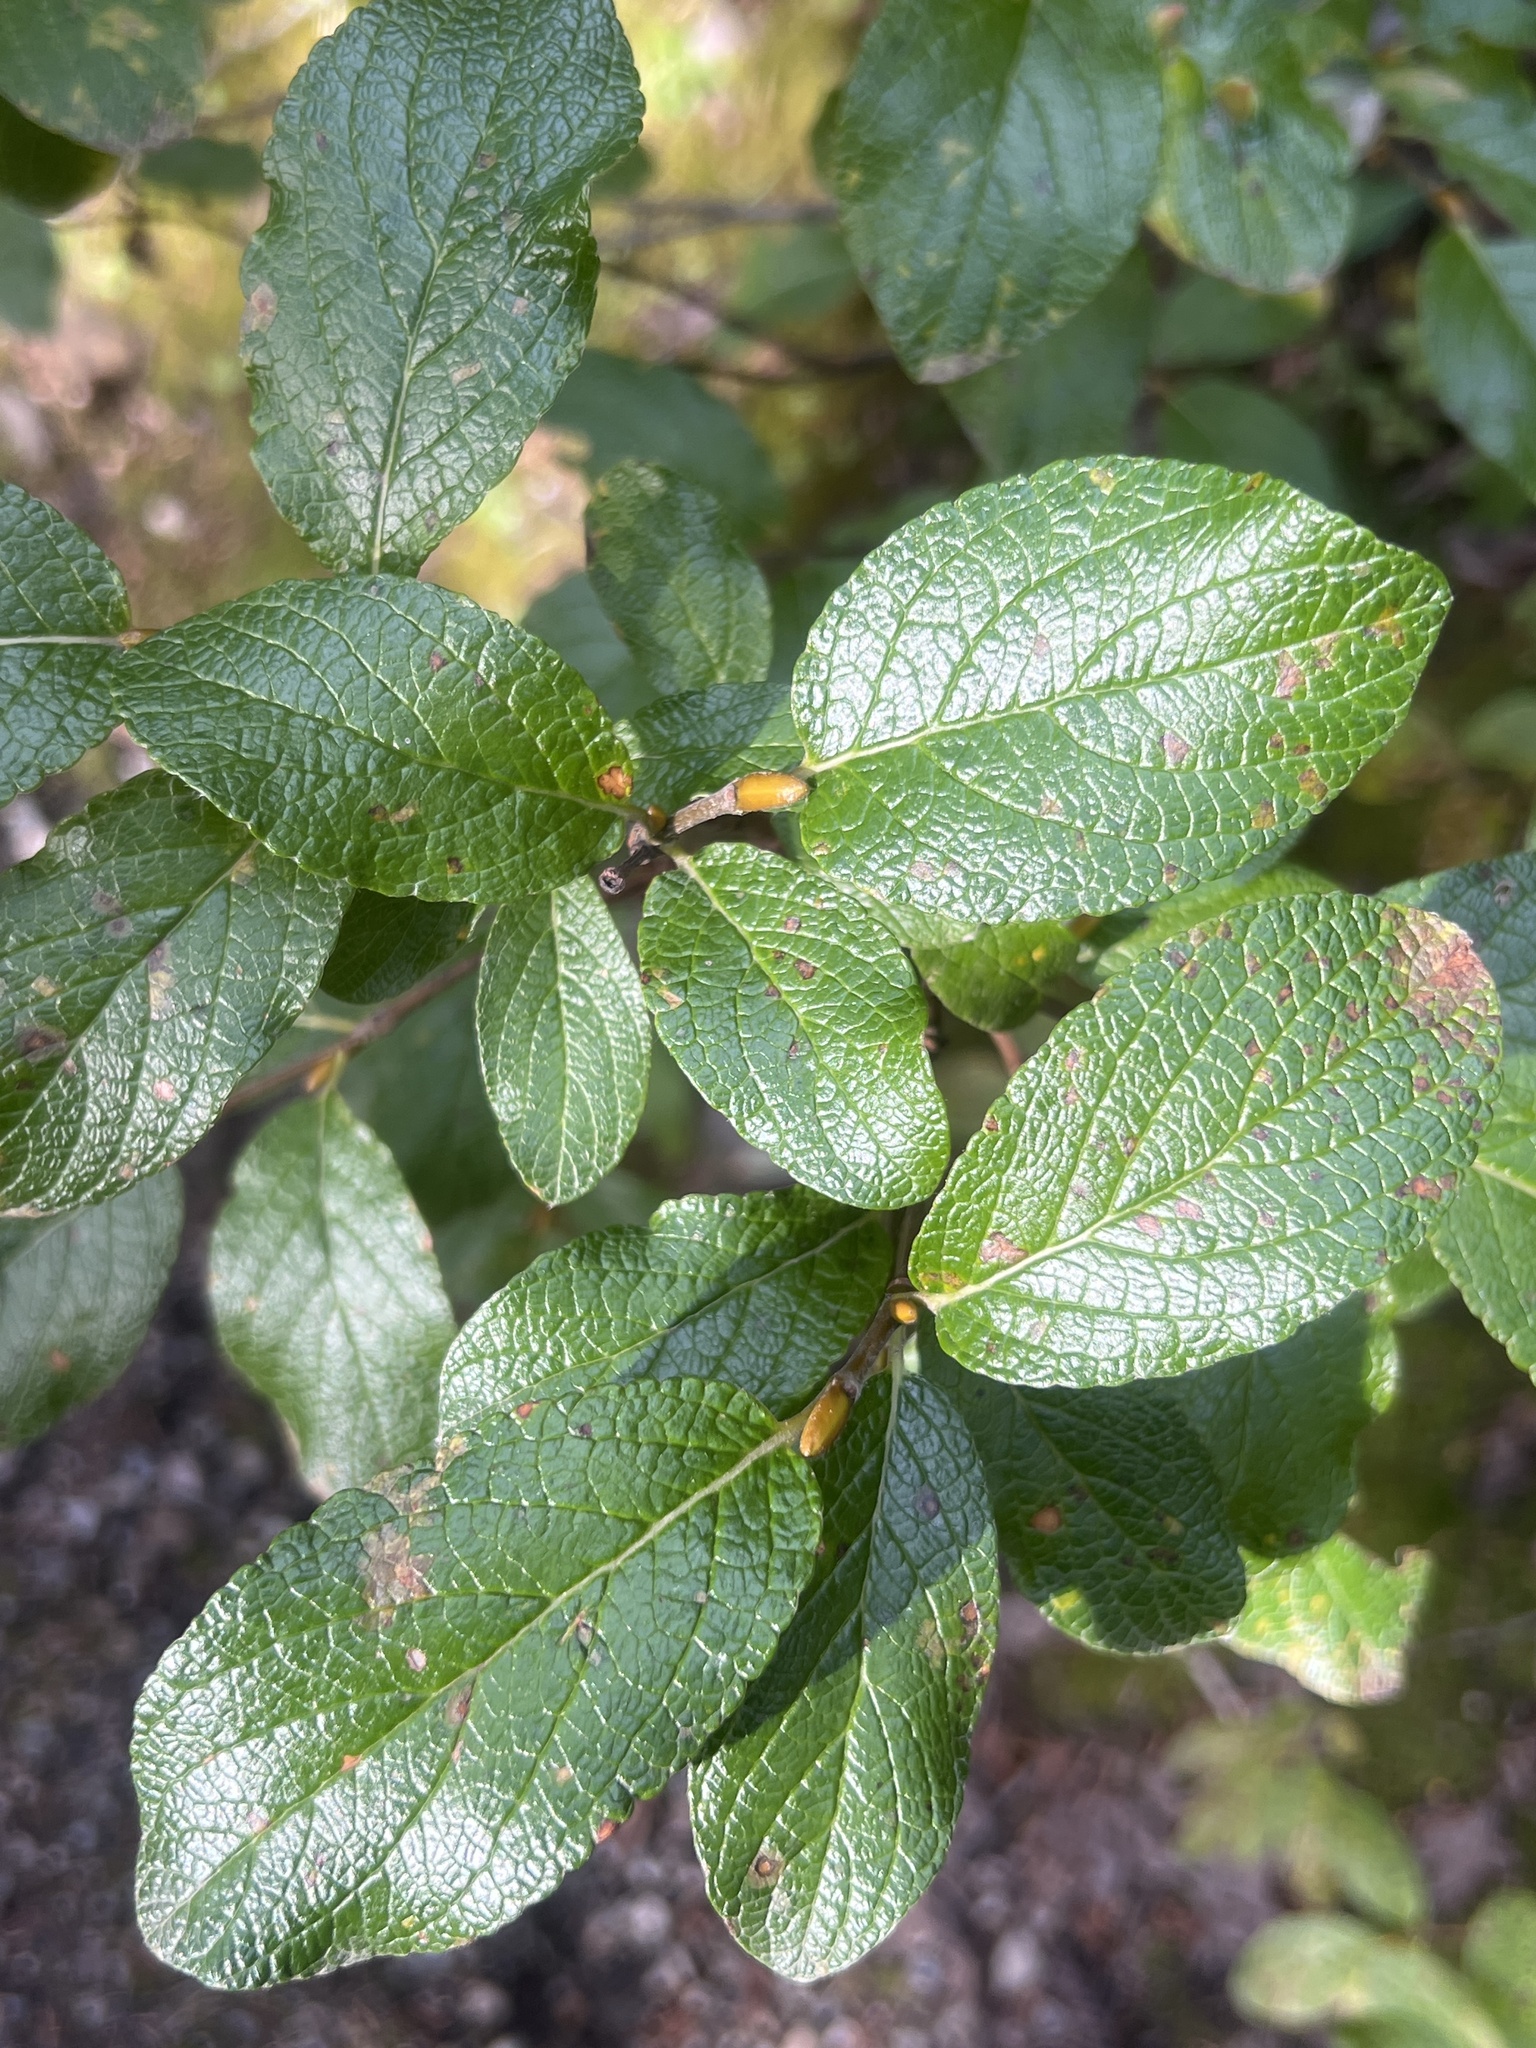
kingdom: Plantae
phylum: Tracheophyta
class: Magnoliopsida
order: Malpighiales
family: Salicaceae
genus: Salix
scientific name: Salix vestita
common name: Hairy willow
